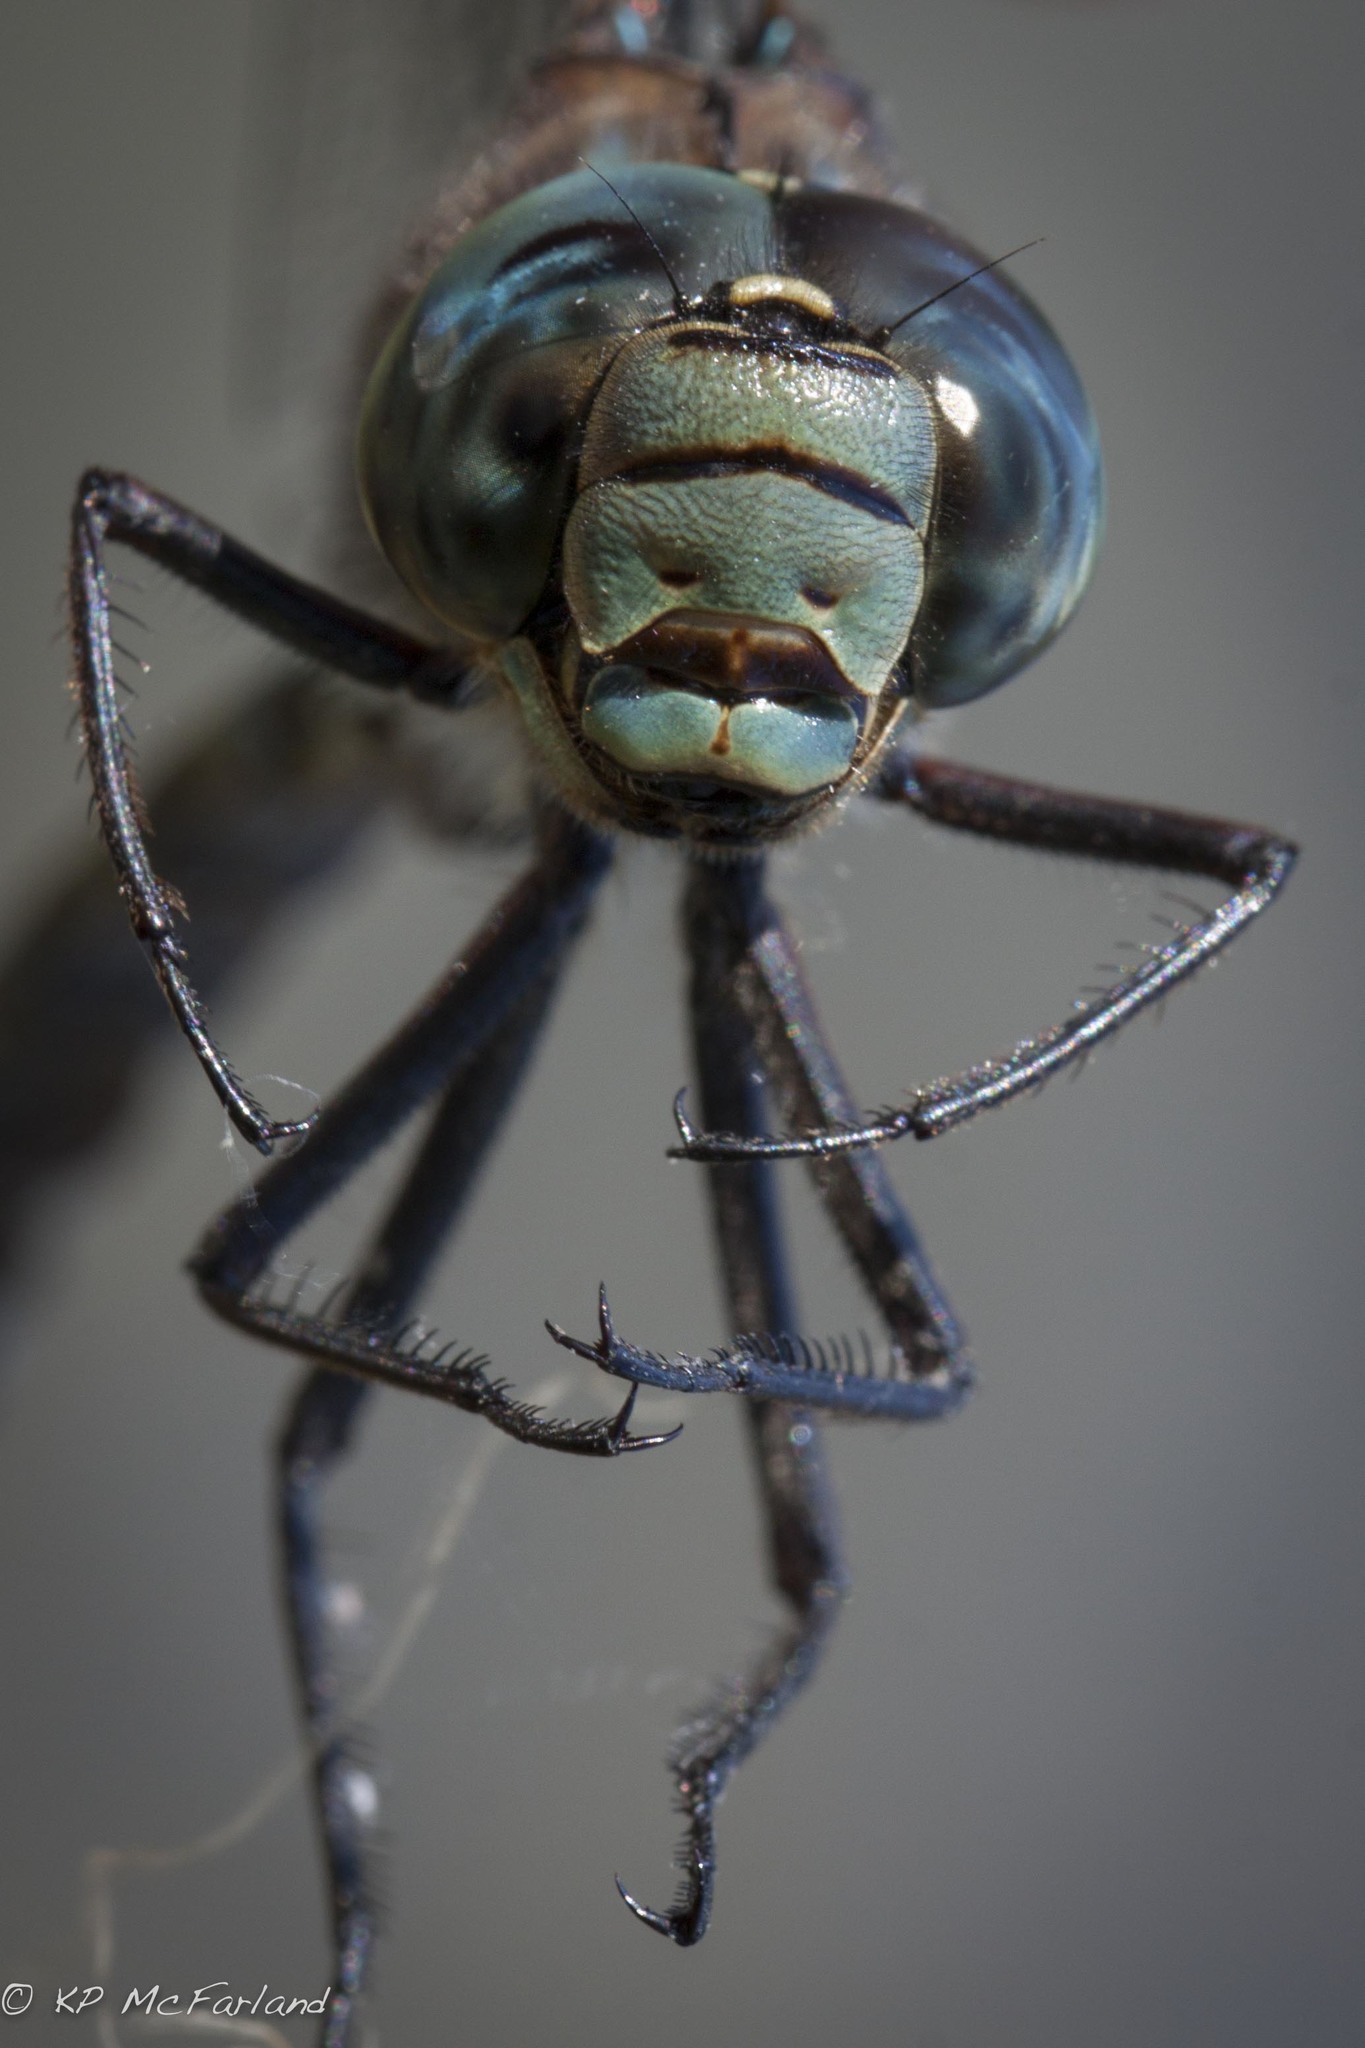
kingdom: Animalia
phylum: Arthropoda
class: Insecta
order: Odonata
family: Aeshnidae
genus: Aeshna
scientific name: Aeshna eremita
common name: Lake darner
